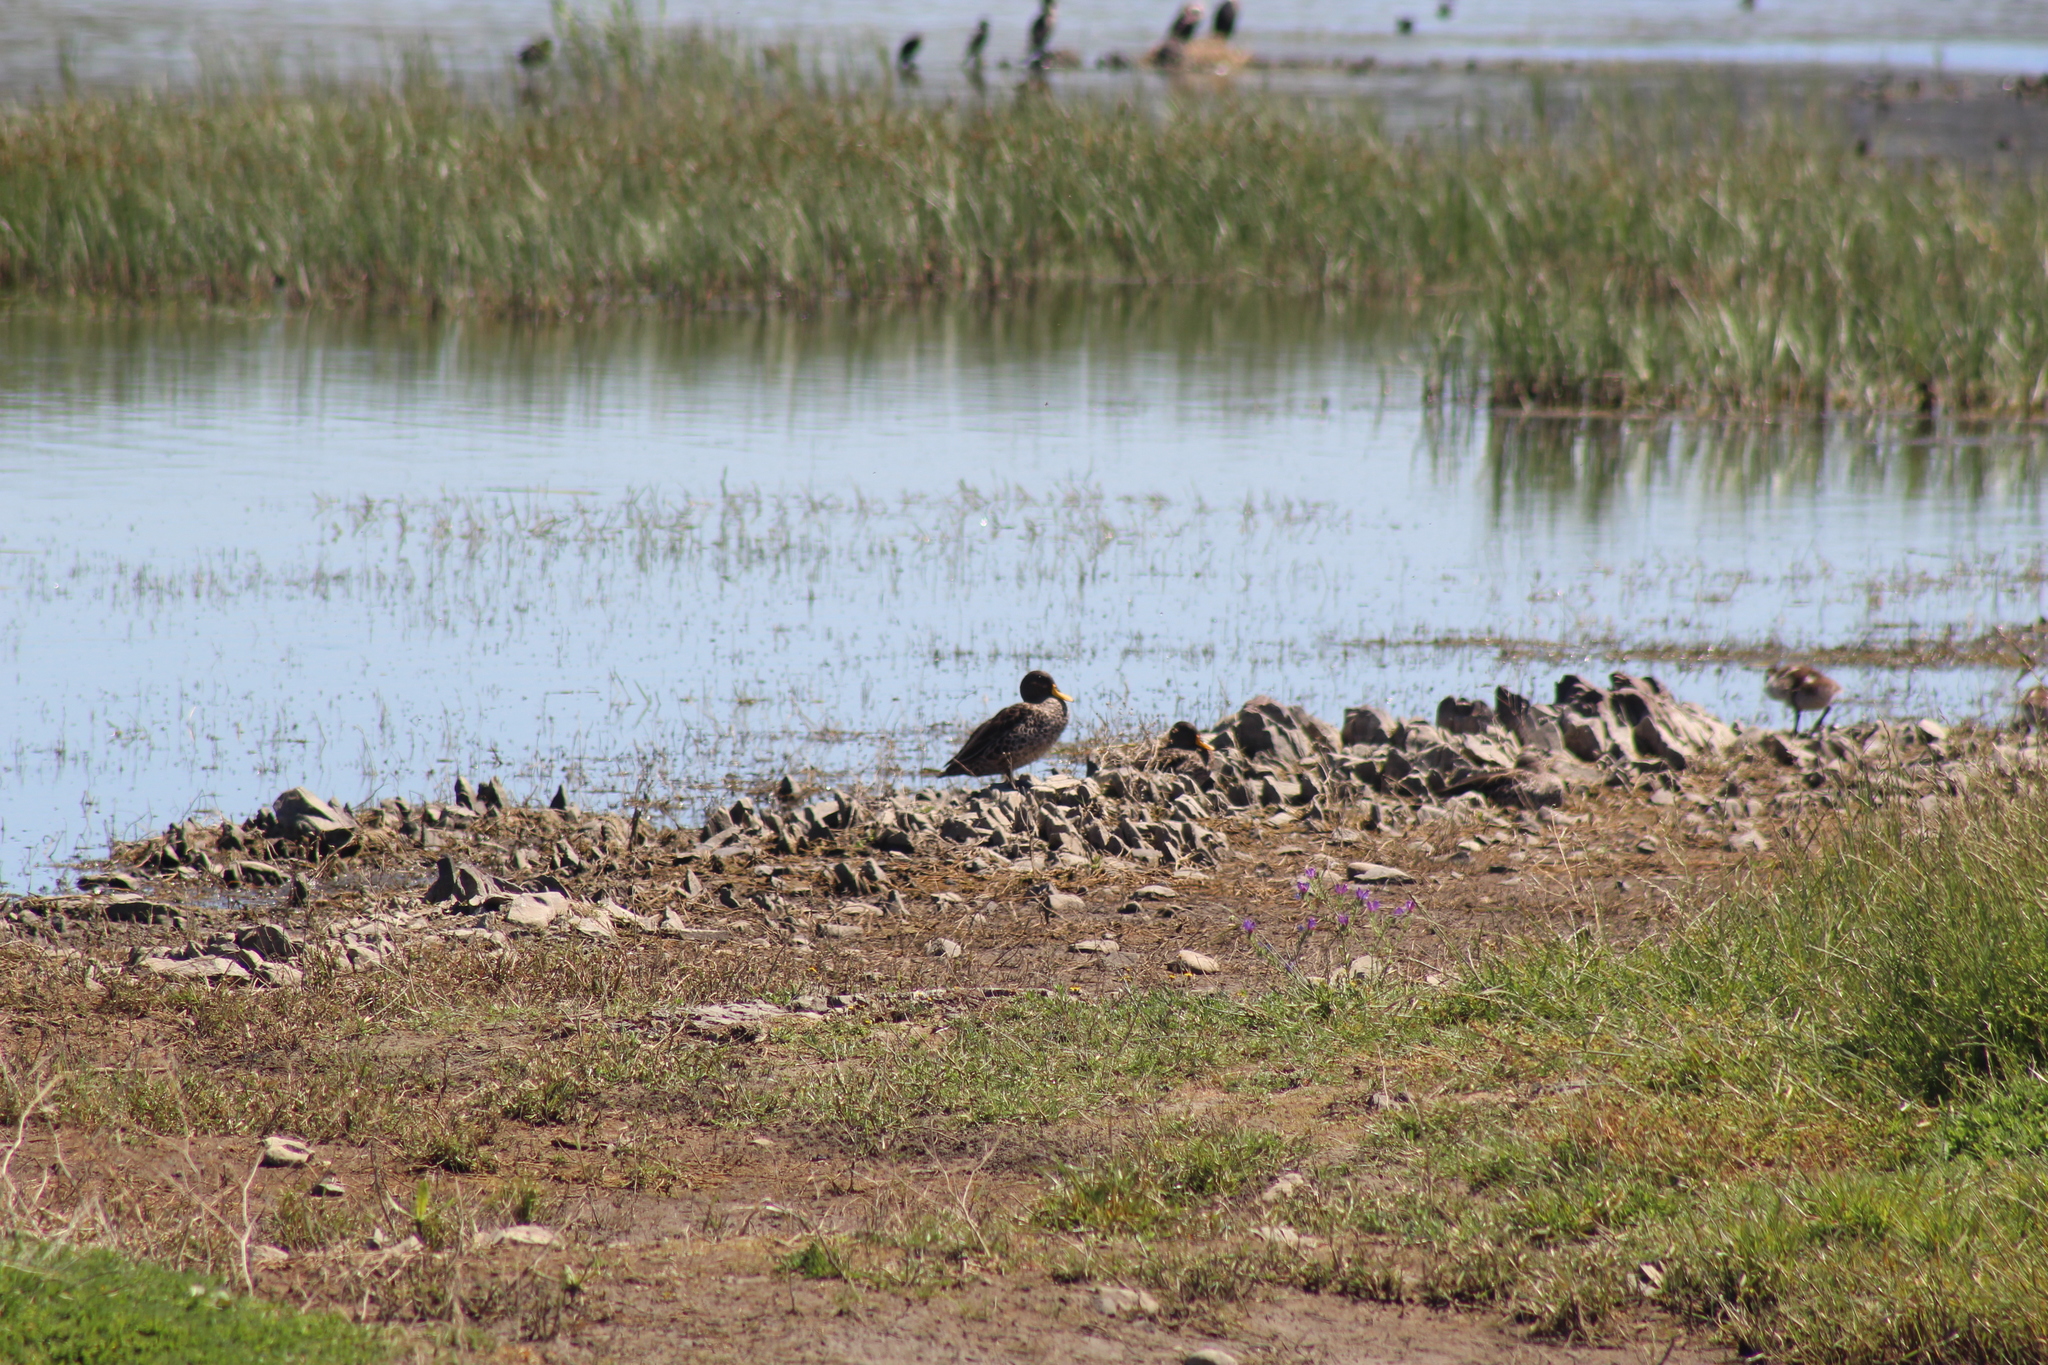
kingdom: Animalia
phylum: Chordata
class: Aves
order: Anseriformes
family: Anatidae
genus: Anas
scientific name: Anas undulata
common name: Yellow-billed duck
